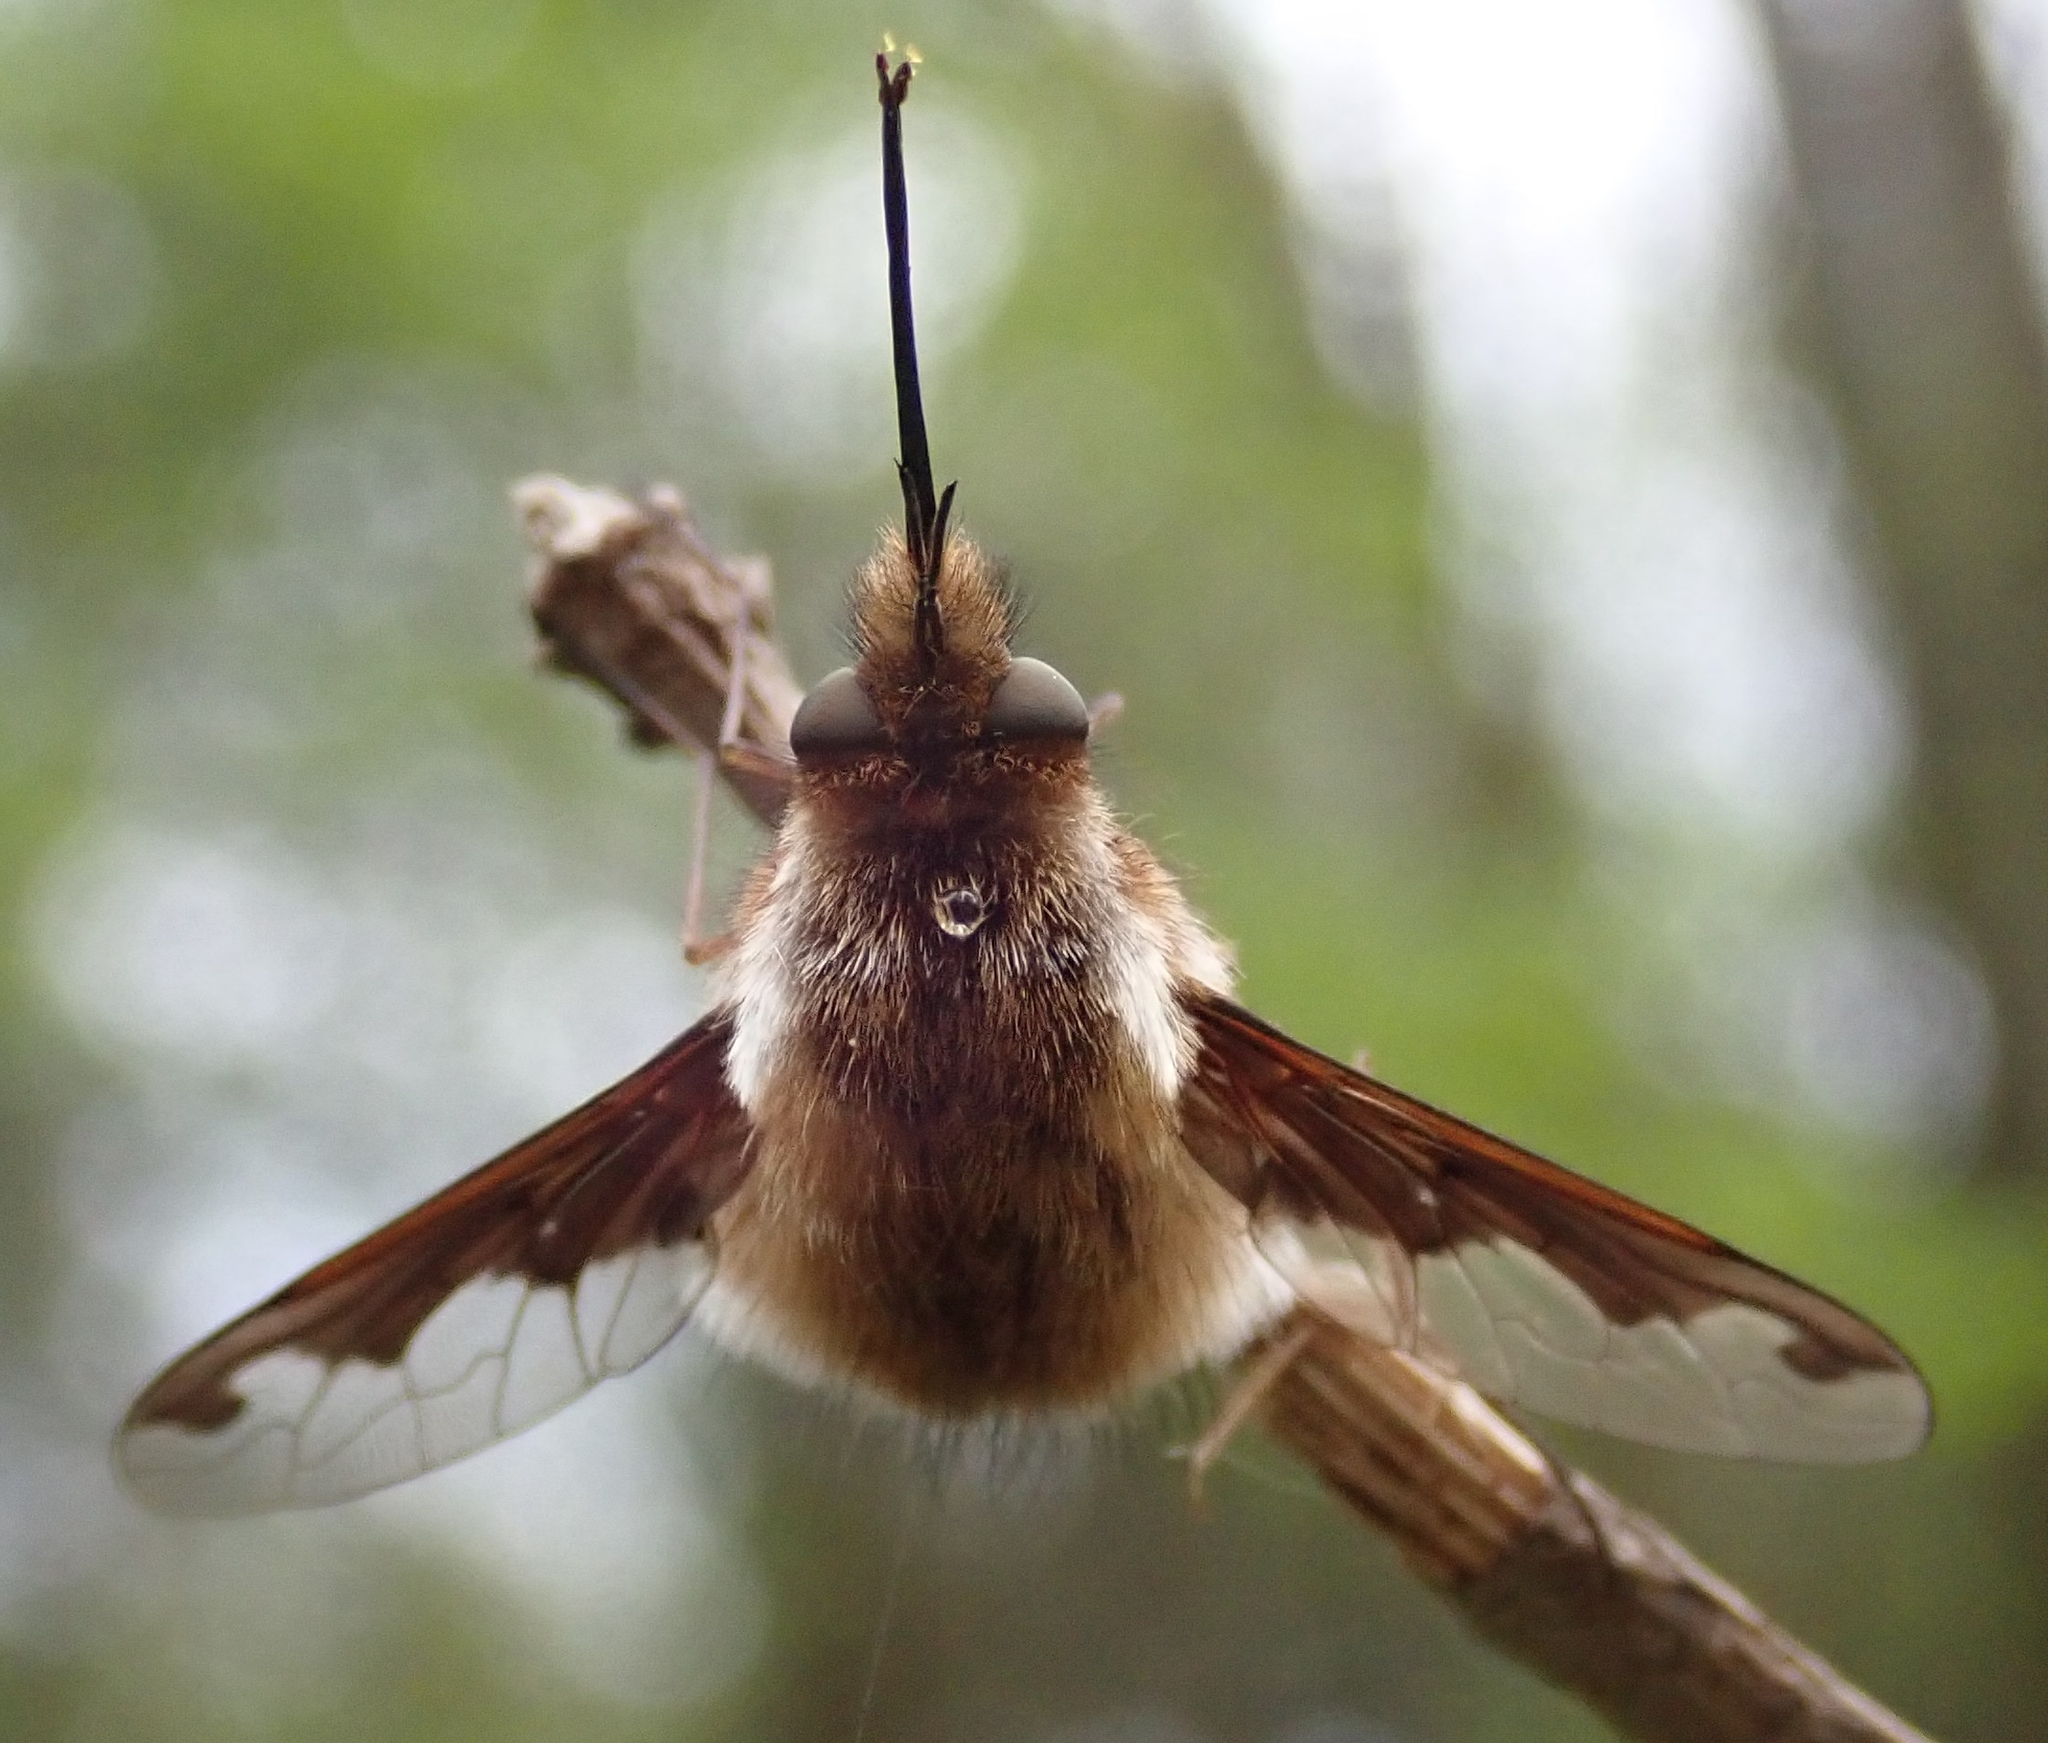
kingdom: Animalia
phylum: Arthropoda
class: Insecta
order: Diptera
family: Bombyliidae
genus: Bombylius
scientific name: Bombylius major
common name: Bee fly
